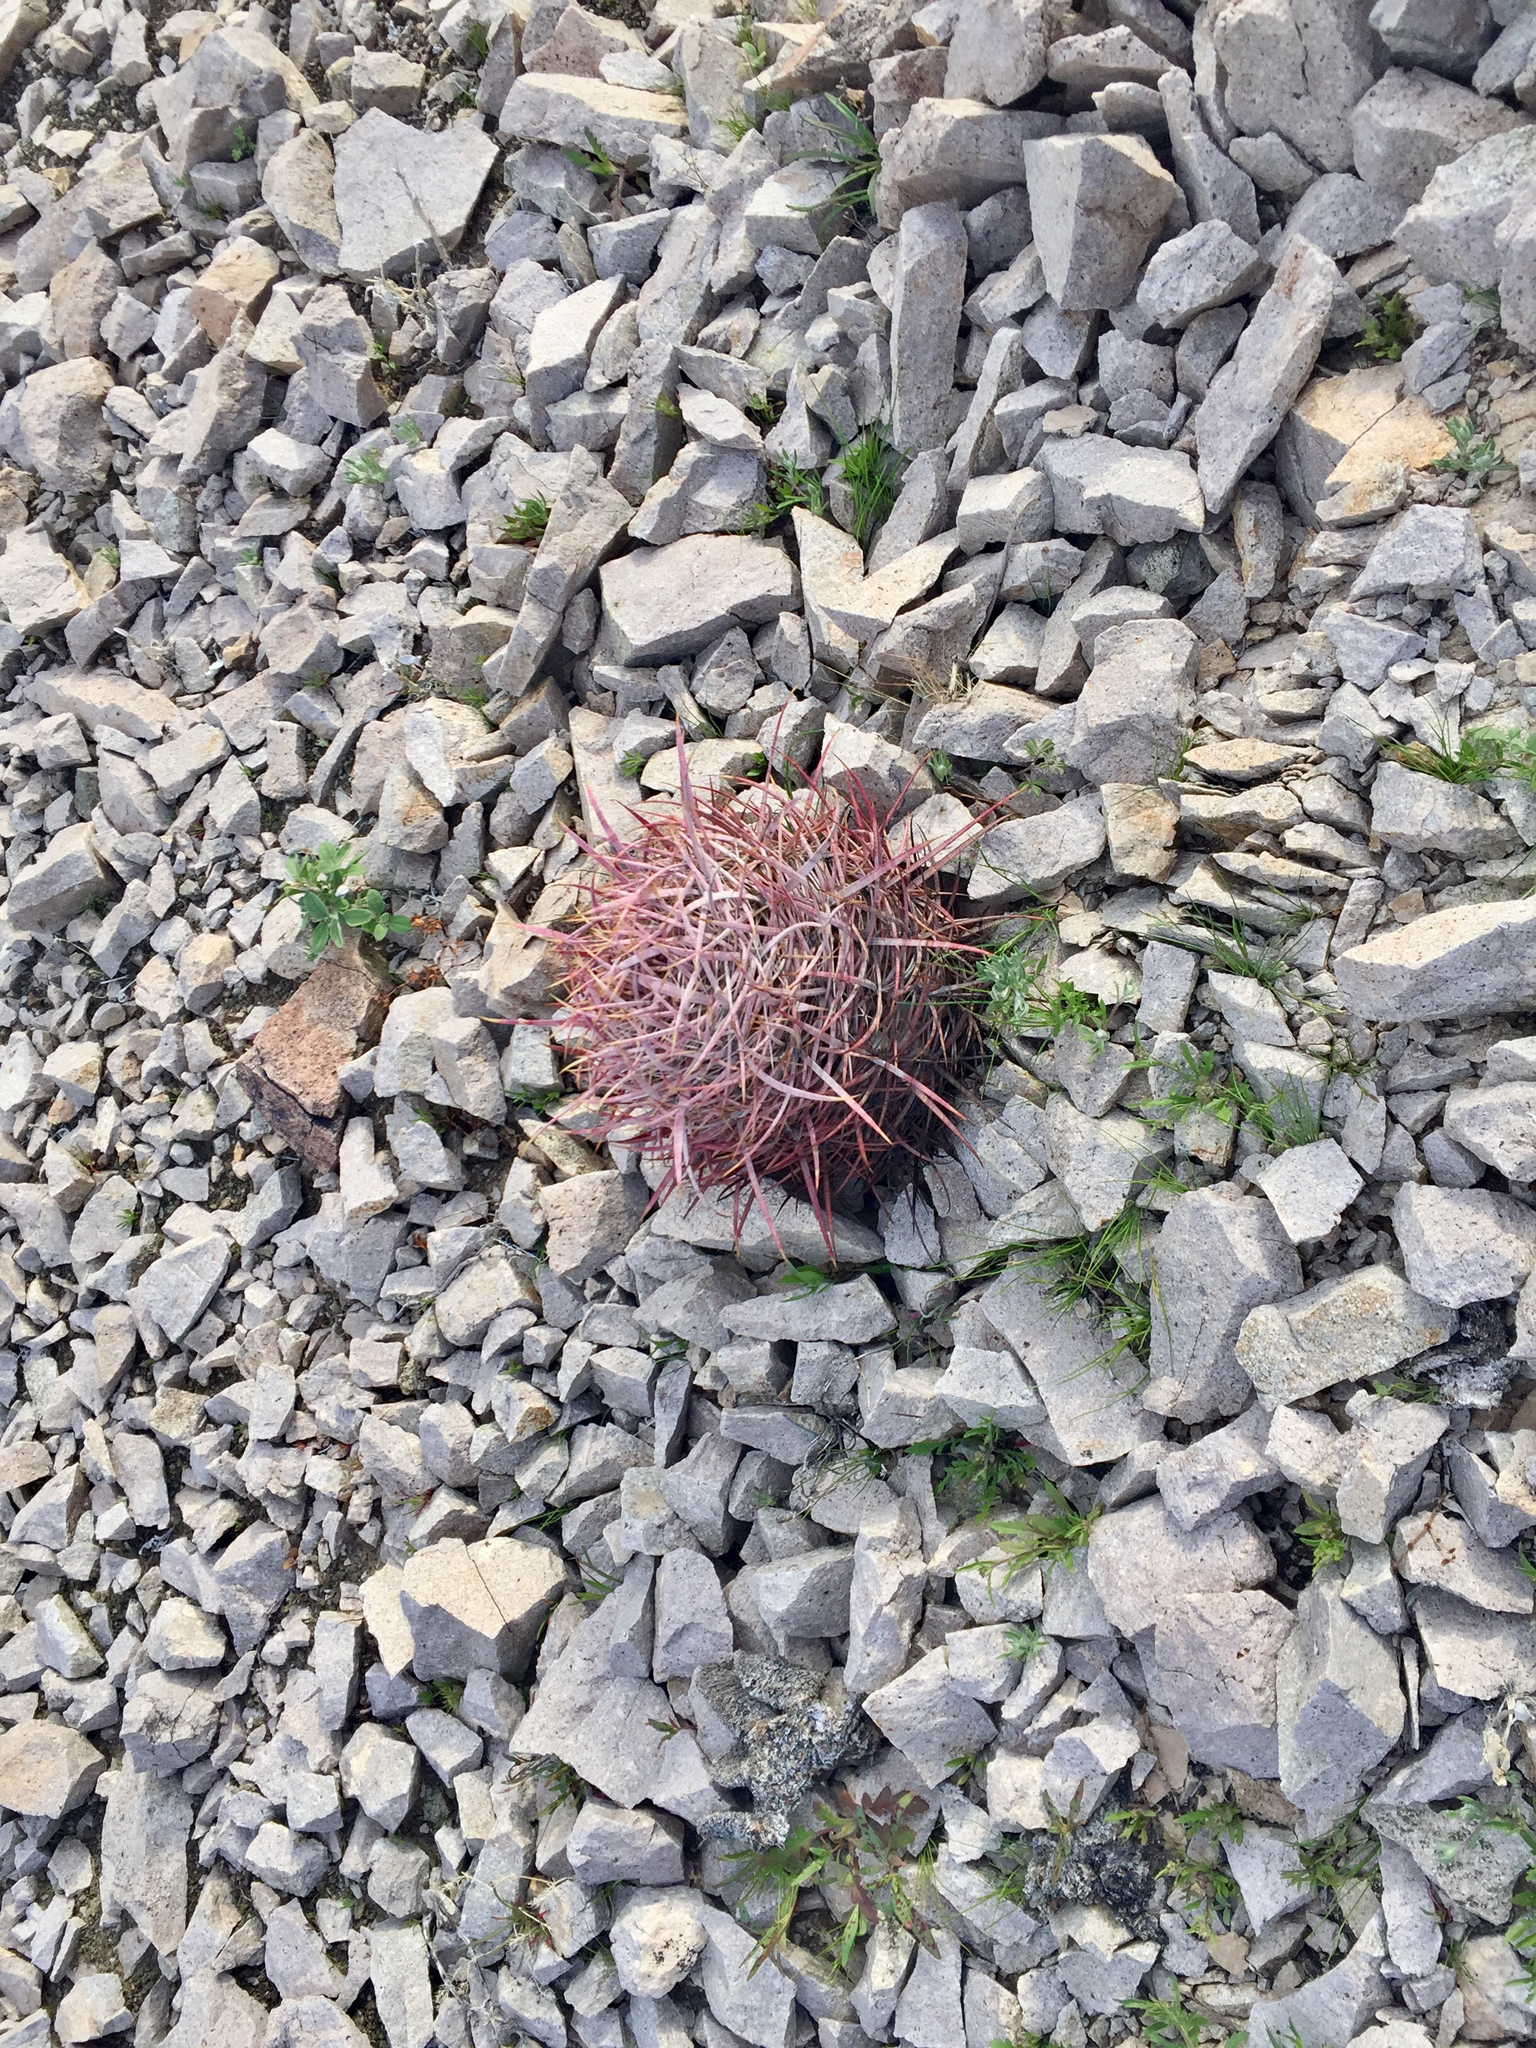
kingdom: Plantae
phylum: Tracheophyta
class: Magnoliopsida
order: Caryophyllales
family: Cactaceae
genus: Ferocactus
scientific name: Ferocactus cylindraceus
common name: California barrel cactus
